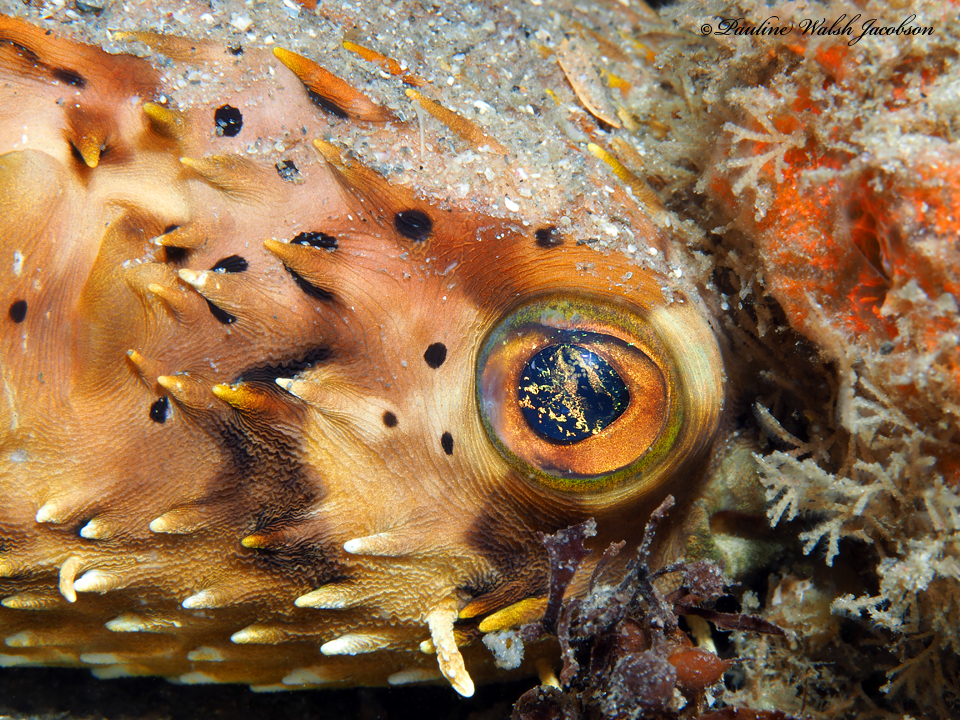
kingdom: Animalia
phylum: Chordata
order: Tetraodontiformes
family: Diodontidae
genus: Diodon
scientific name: Diodon holocanthus
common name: Balloonfish
